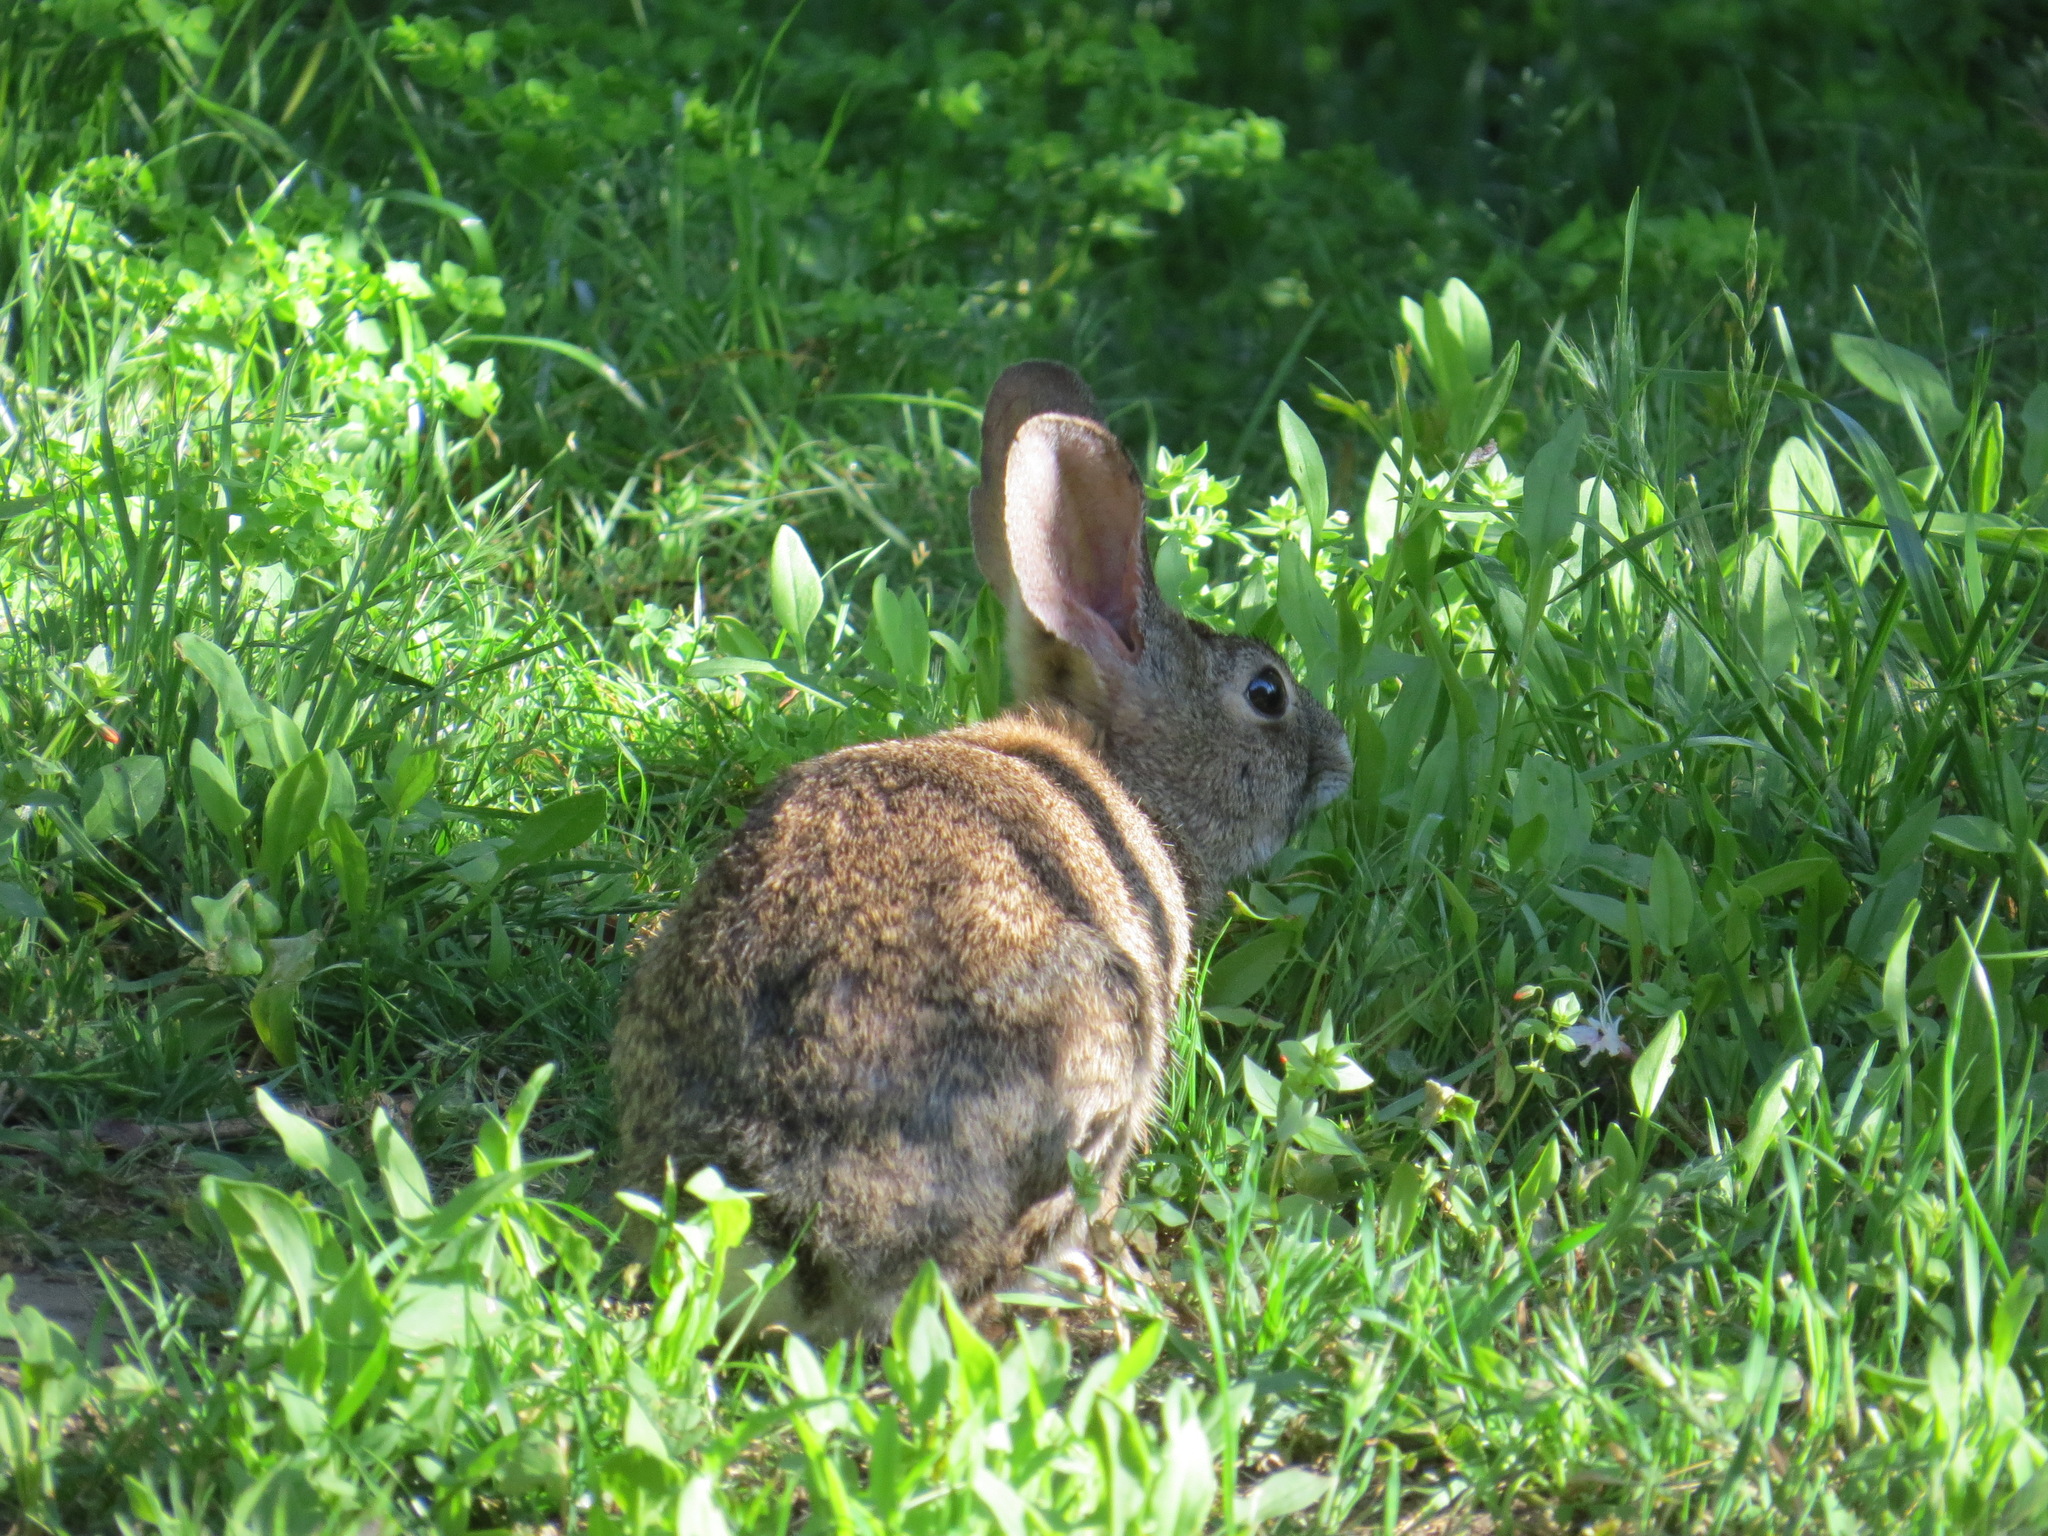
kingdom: Animalia
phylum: Chordata
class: Mammalia
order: Lagomorpha
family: Leporidae
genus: Sylvilagus
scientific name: Sylvilagus bachmani
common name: Brush rabbit
